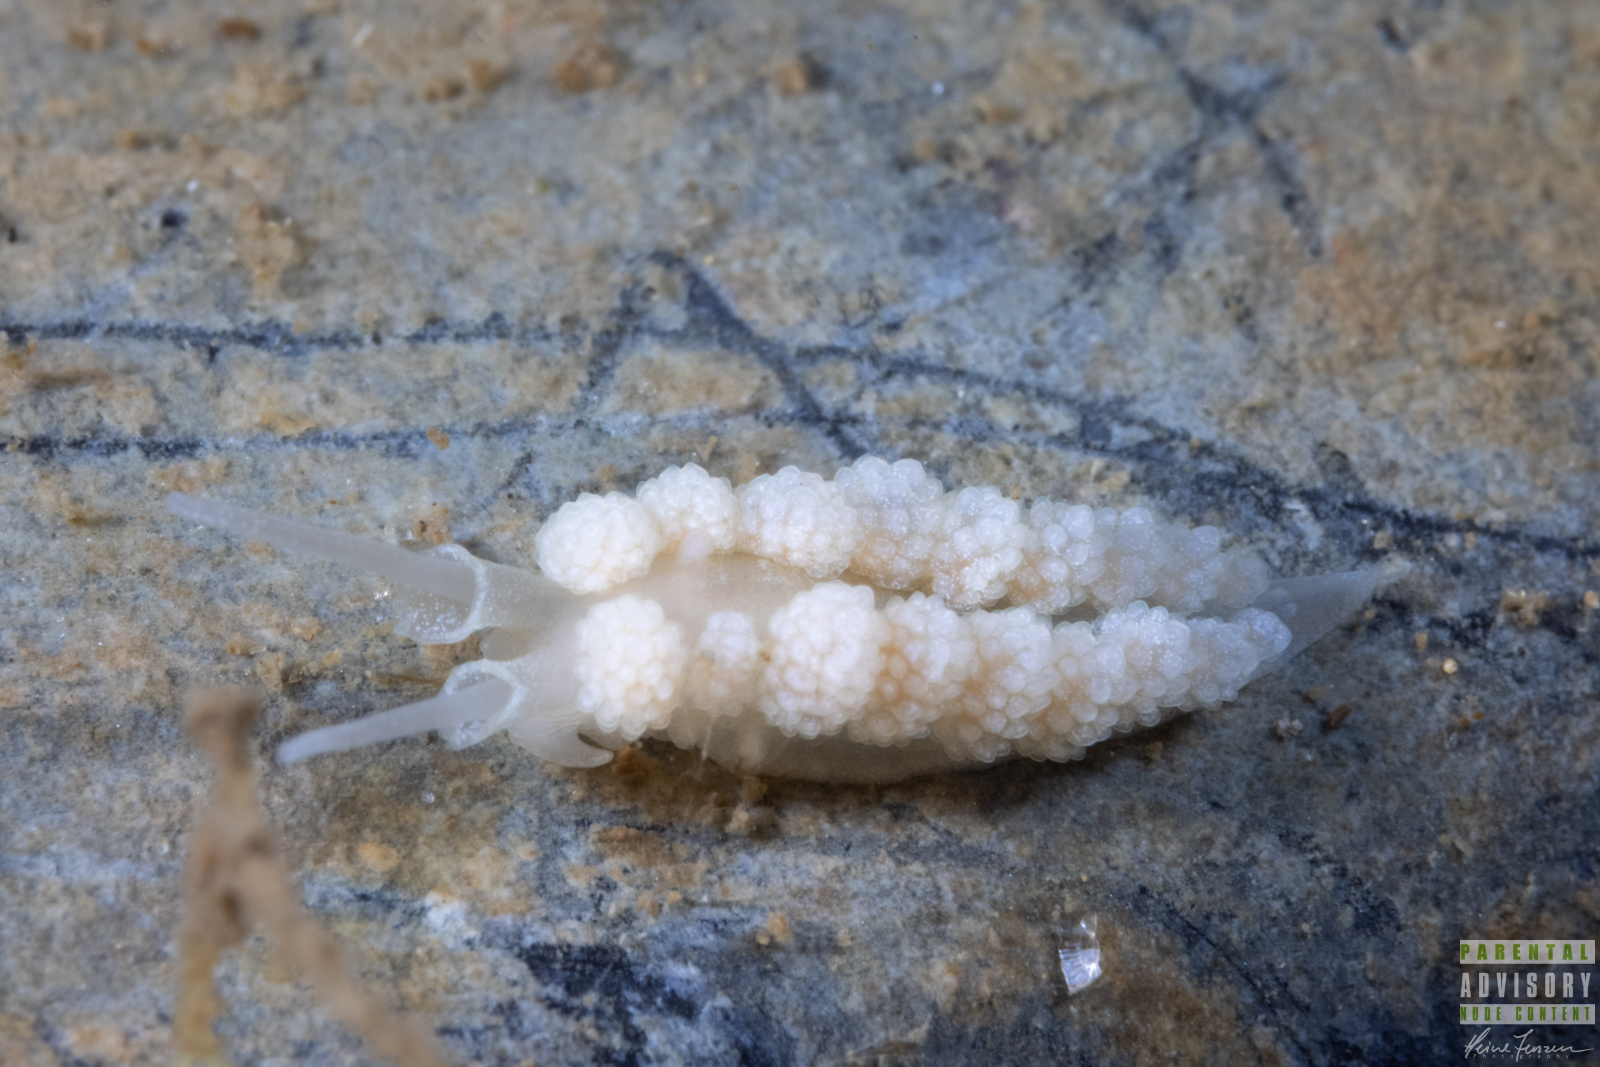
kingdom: Animalia
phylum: Mollusca
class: Gastropoda
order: Nudibranchia
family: Dotidae
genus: Doto
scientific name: Doto fragilis
